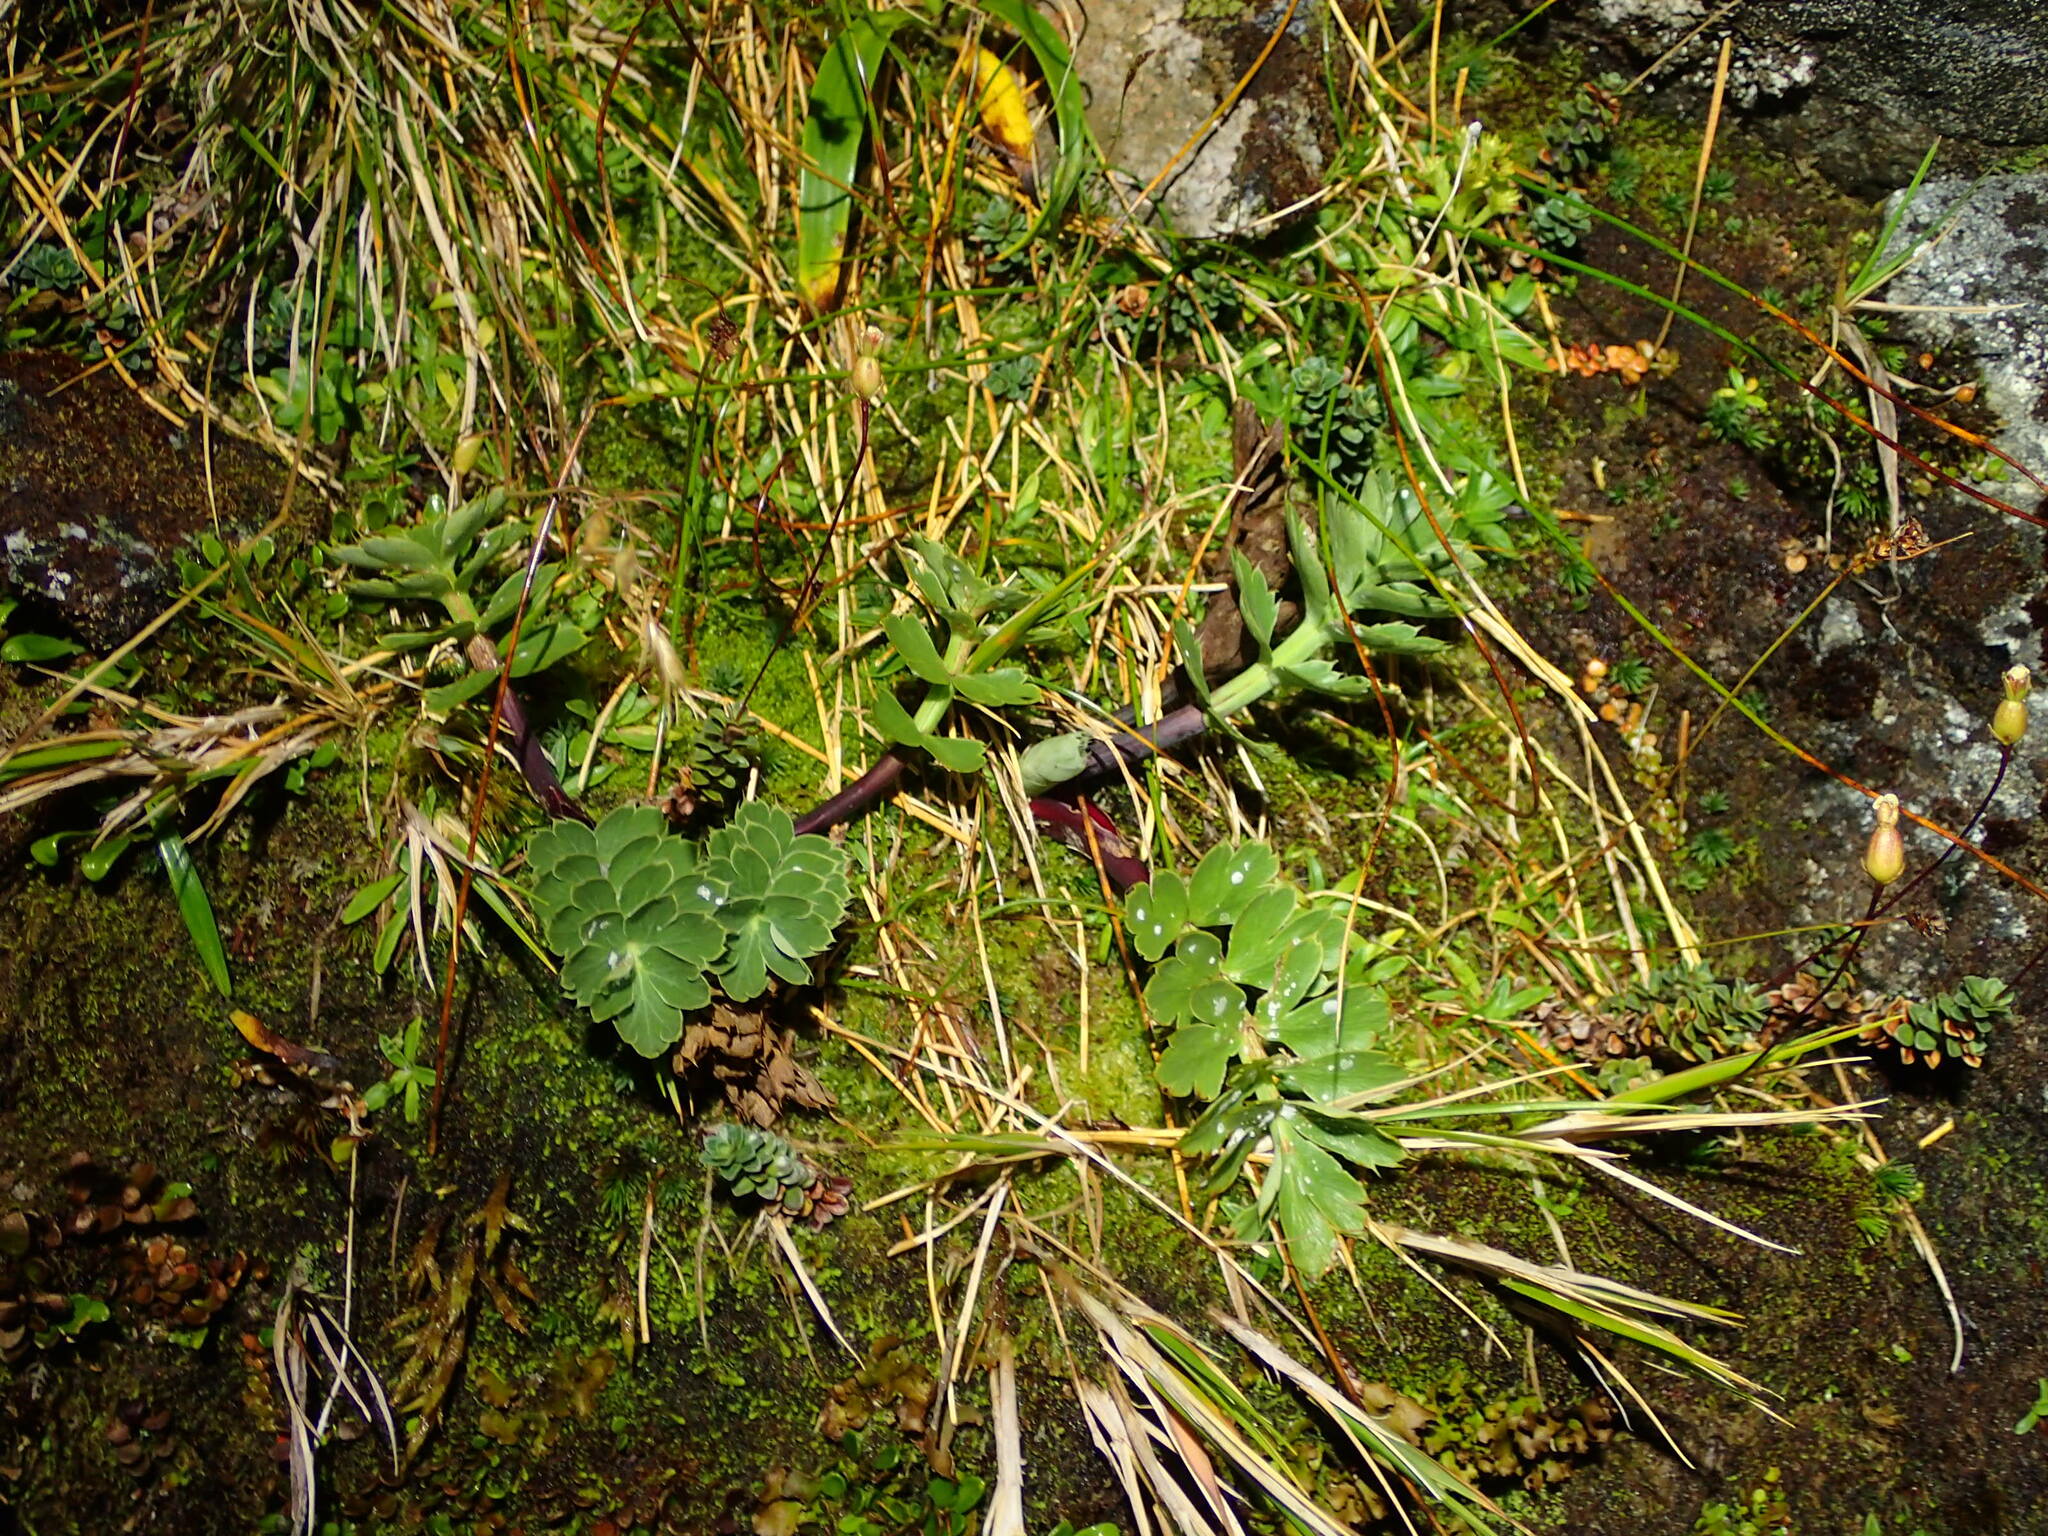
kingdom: Plantae
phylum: Tracheophyta
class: Magnoliopsida
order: Apiales
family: Apiaceae
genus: Anisotome
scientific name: Anisotome pilifera
